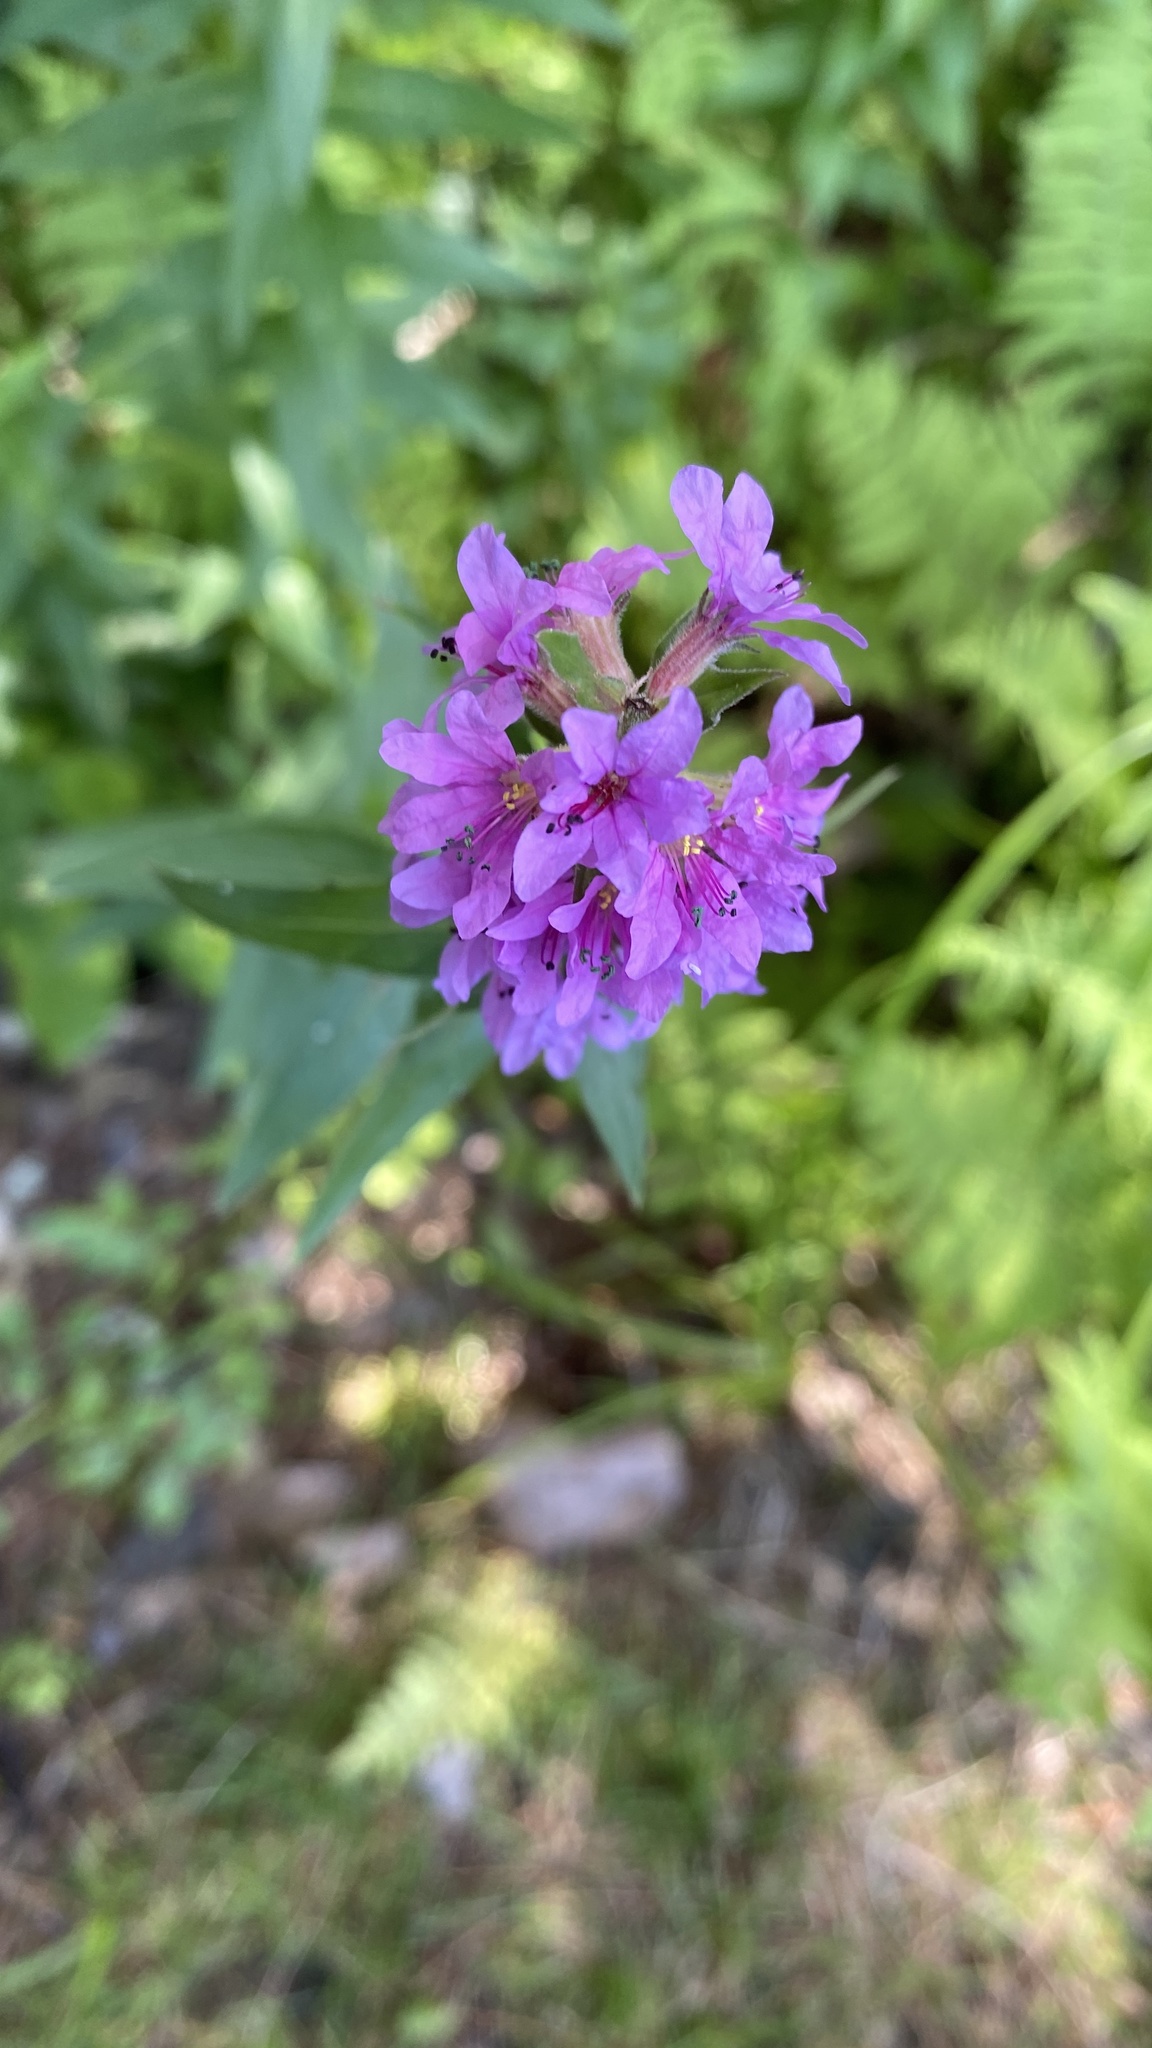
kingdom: Plantae
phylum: Tracheophyta
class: Magnoliopsida
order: Myrtales
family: Lythraceae
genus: Lythrum
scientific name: Lythrum salicaria
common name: Purple loosestrife
